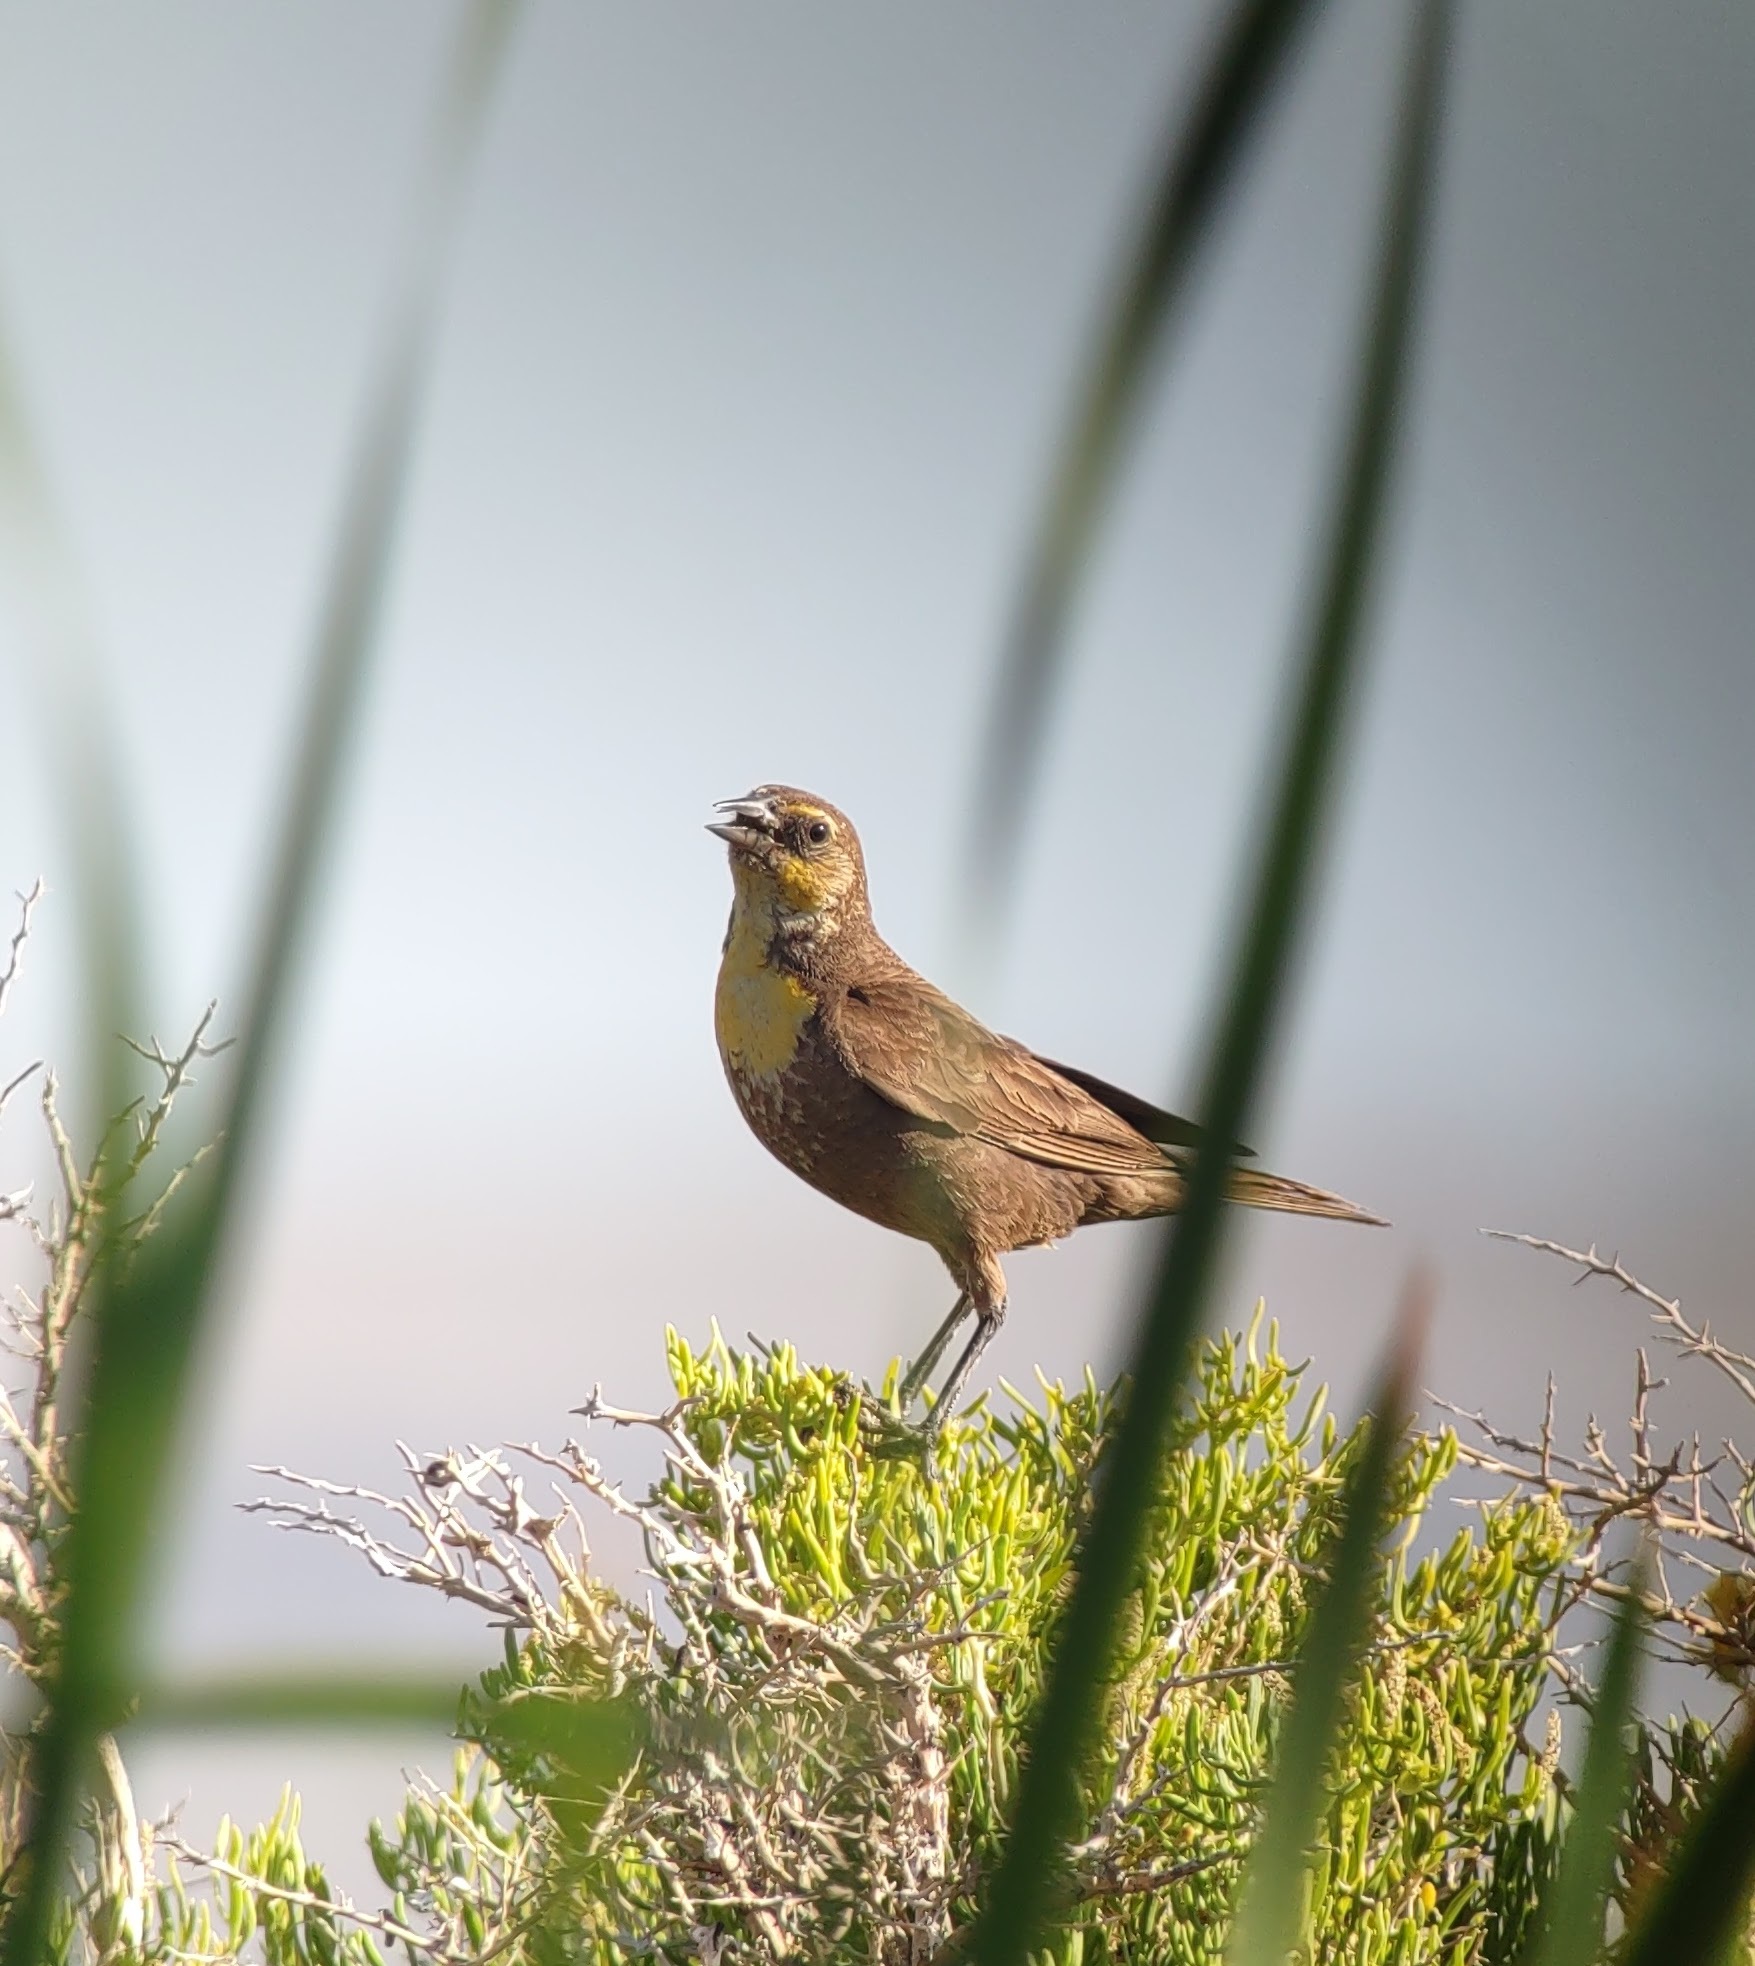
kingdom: Animalia
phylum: Chordata
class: Aves
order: Passeriformes
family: Icteridae
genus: Xanthocephalus
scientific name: Xanthocephalus xanthocephalus
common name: Yellow-headed blackbird
